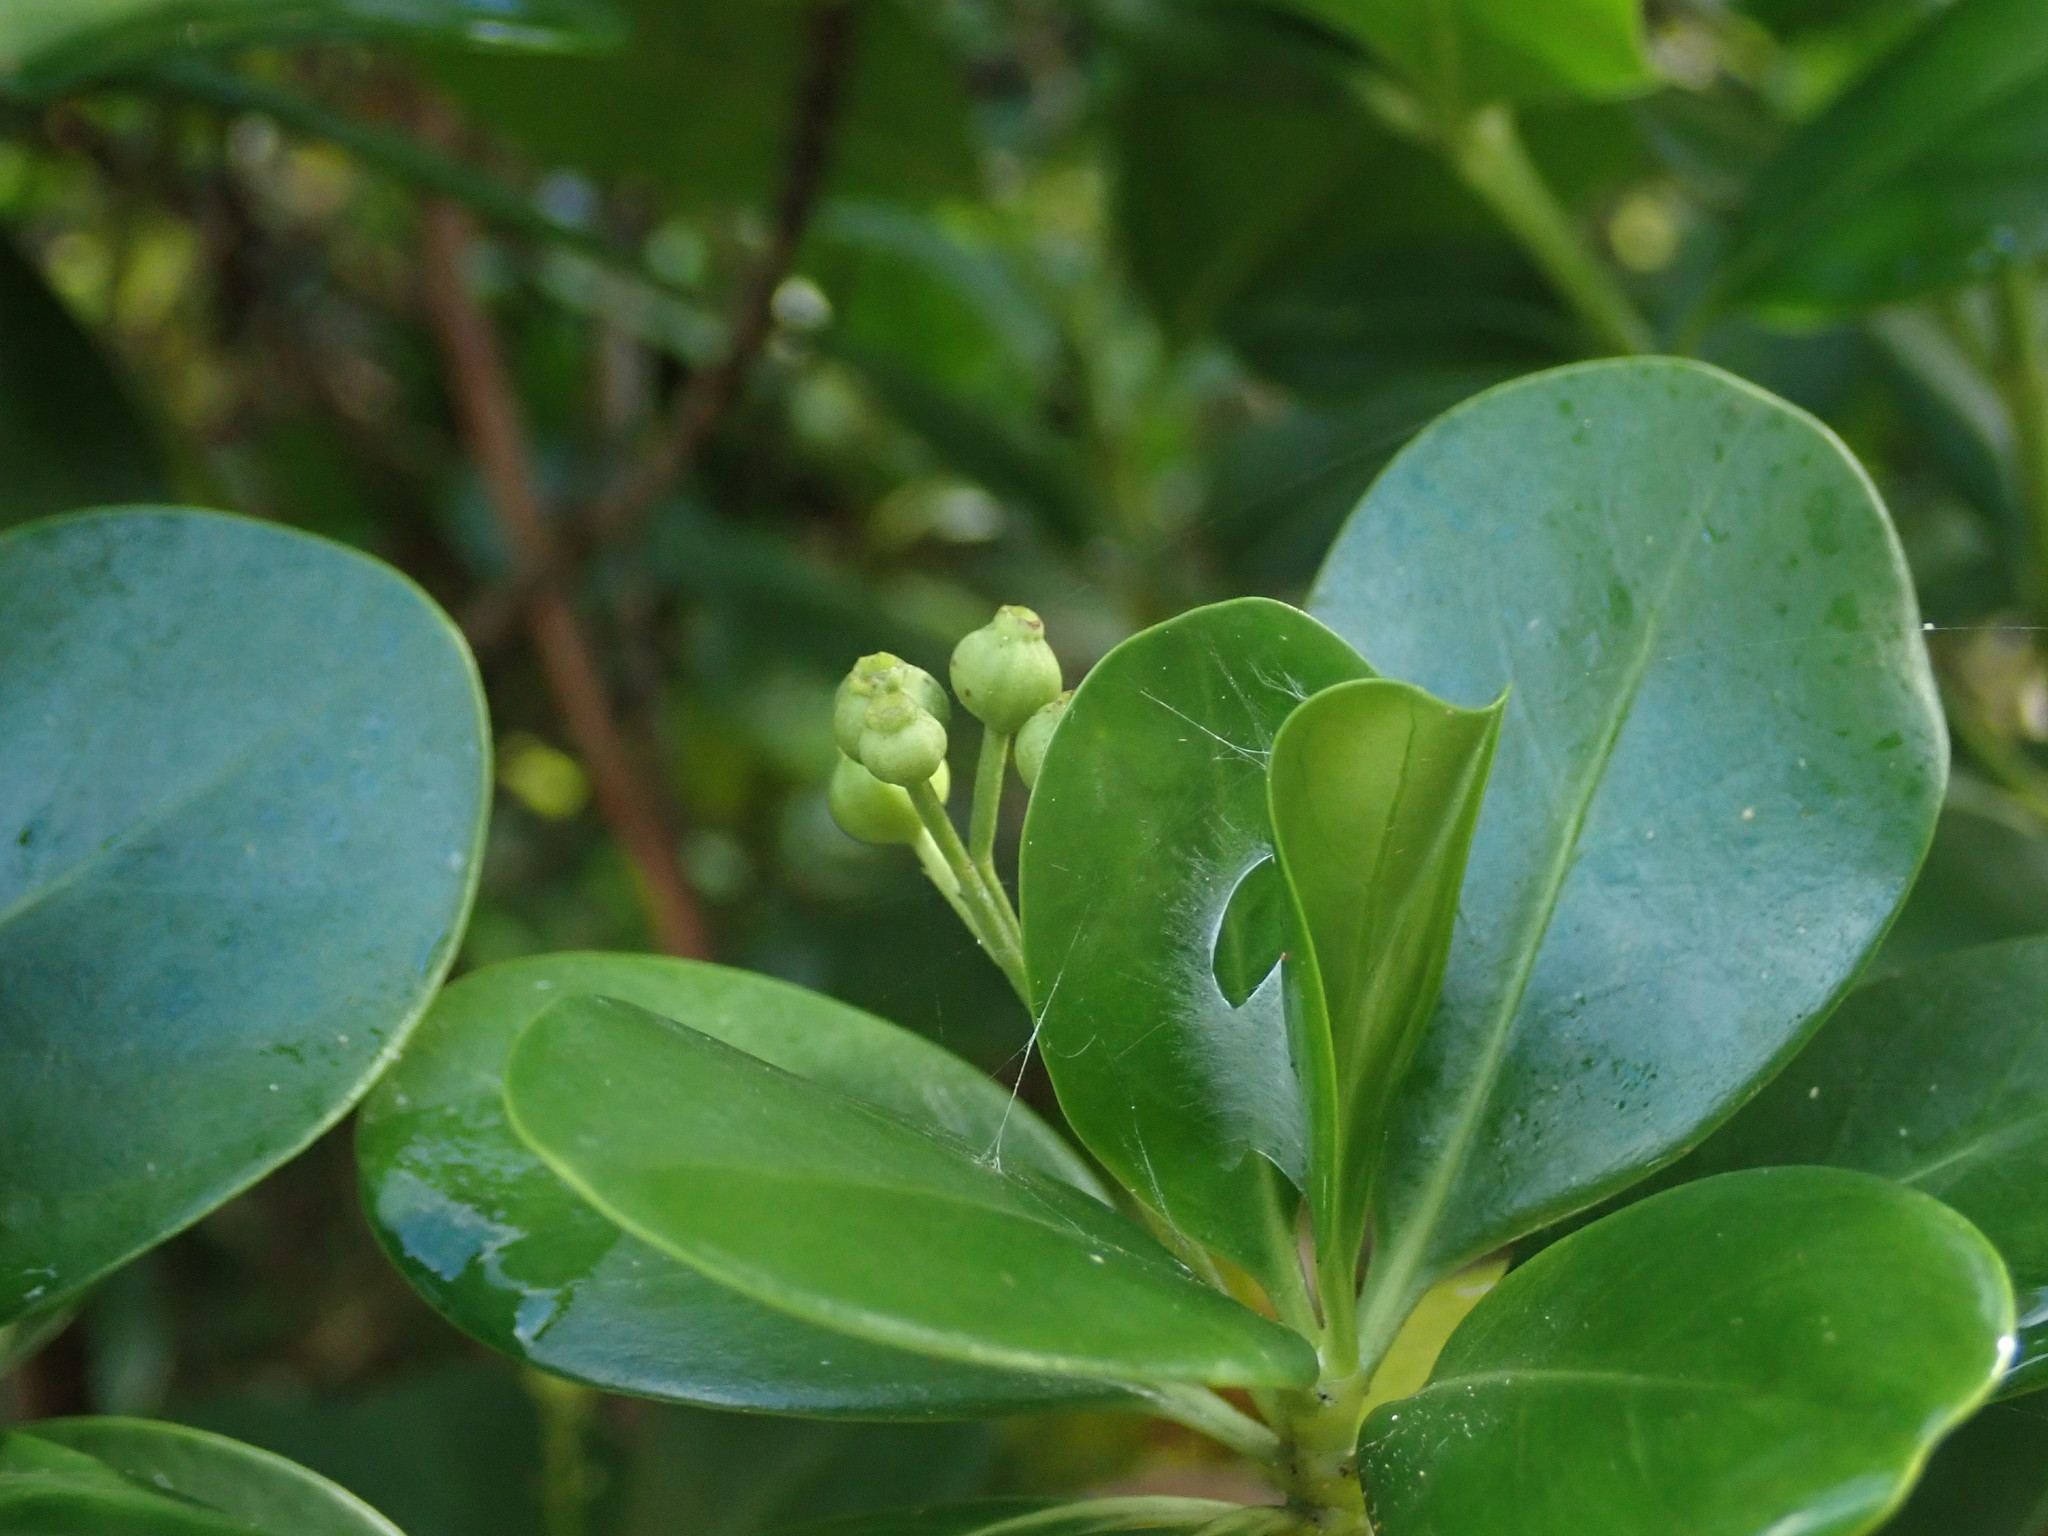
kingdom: Plantae
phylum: Tracheophyta
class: Magnoliopsida
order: Gentianales
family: Rubiaceae
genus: Erithalis
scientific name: Erithalis fruticosa
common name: Candlewood
